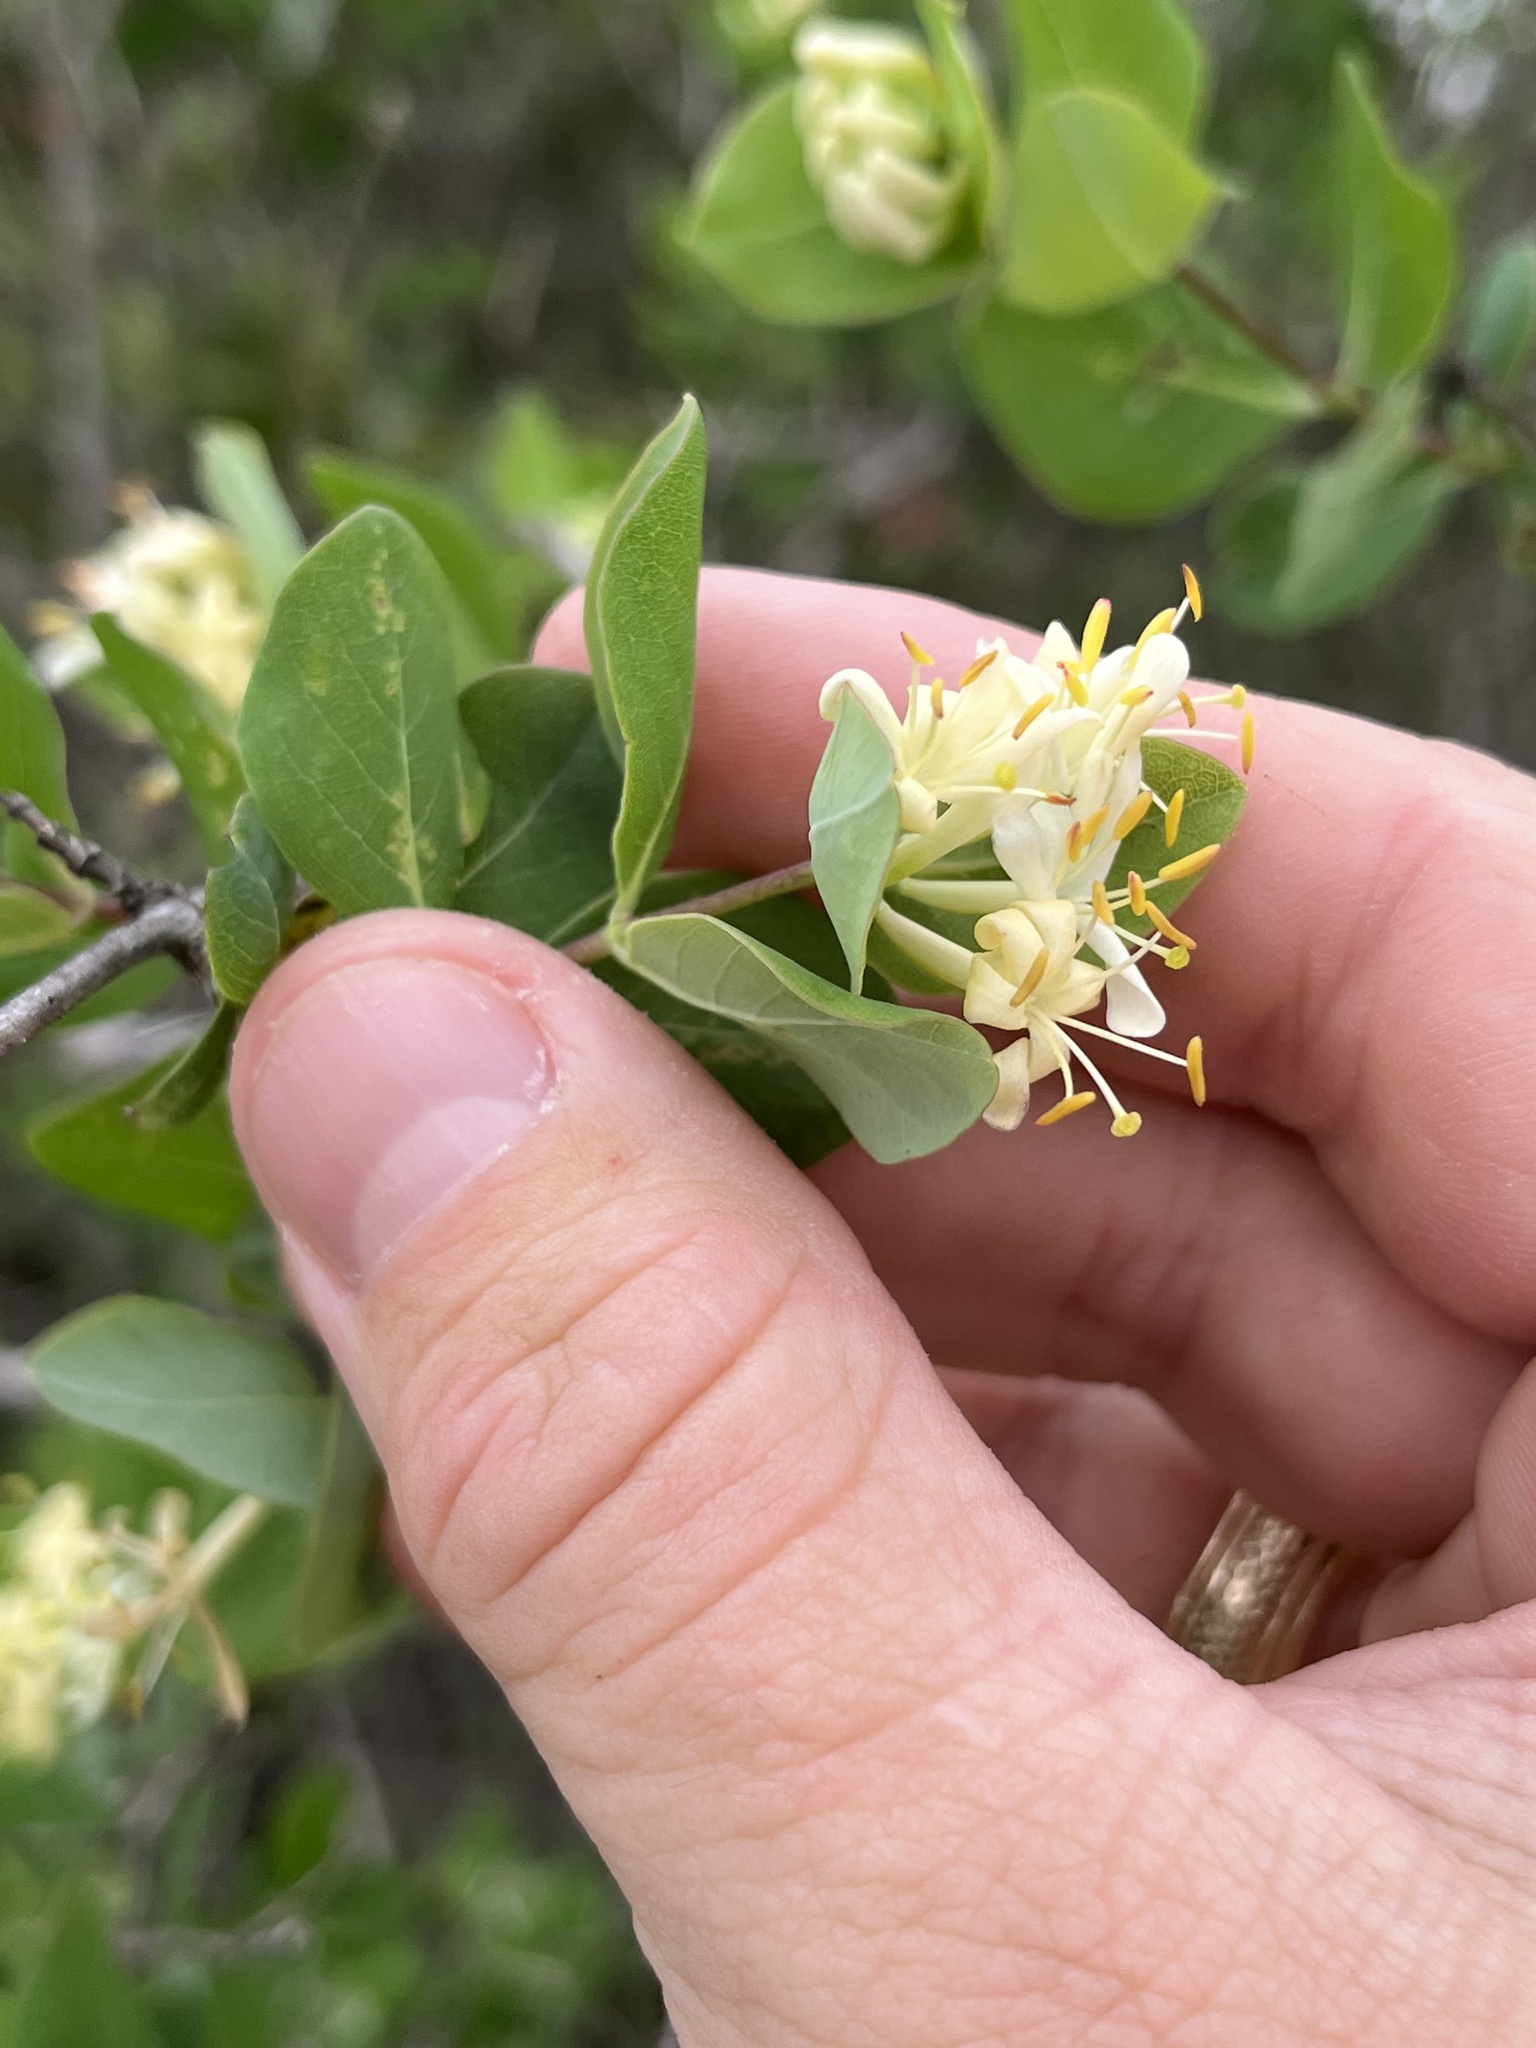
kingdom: Plantae
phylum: Tracheophyta
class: Magnoliopsida
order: Dipsacales
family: Caprifoliaceae
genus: Lonicera
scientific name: Lonicera albiflora
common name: White honeysuckle
